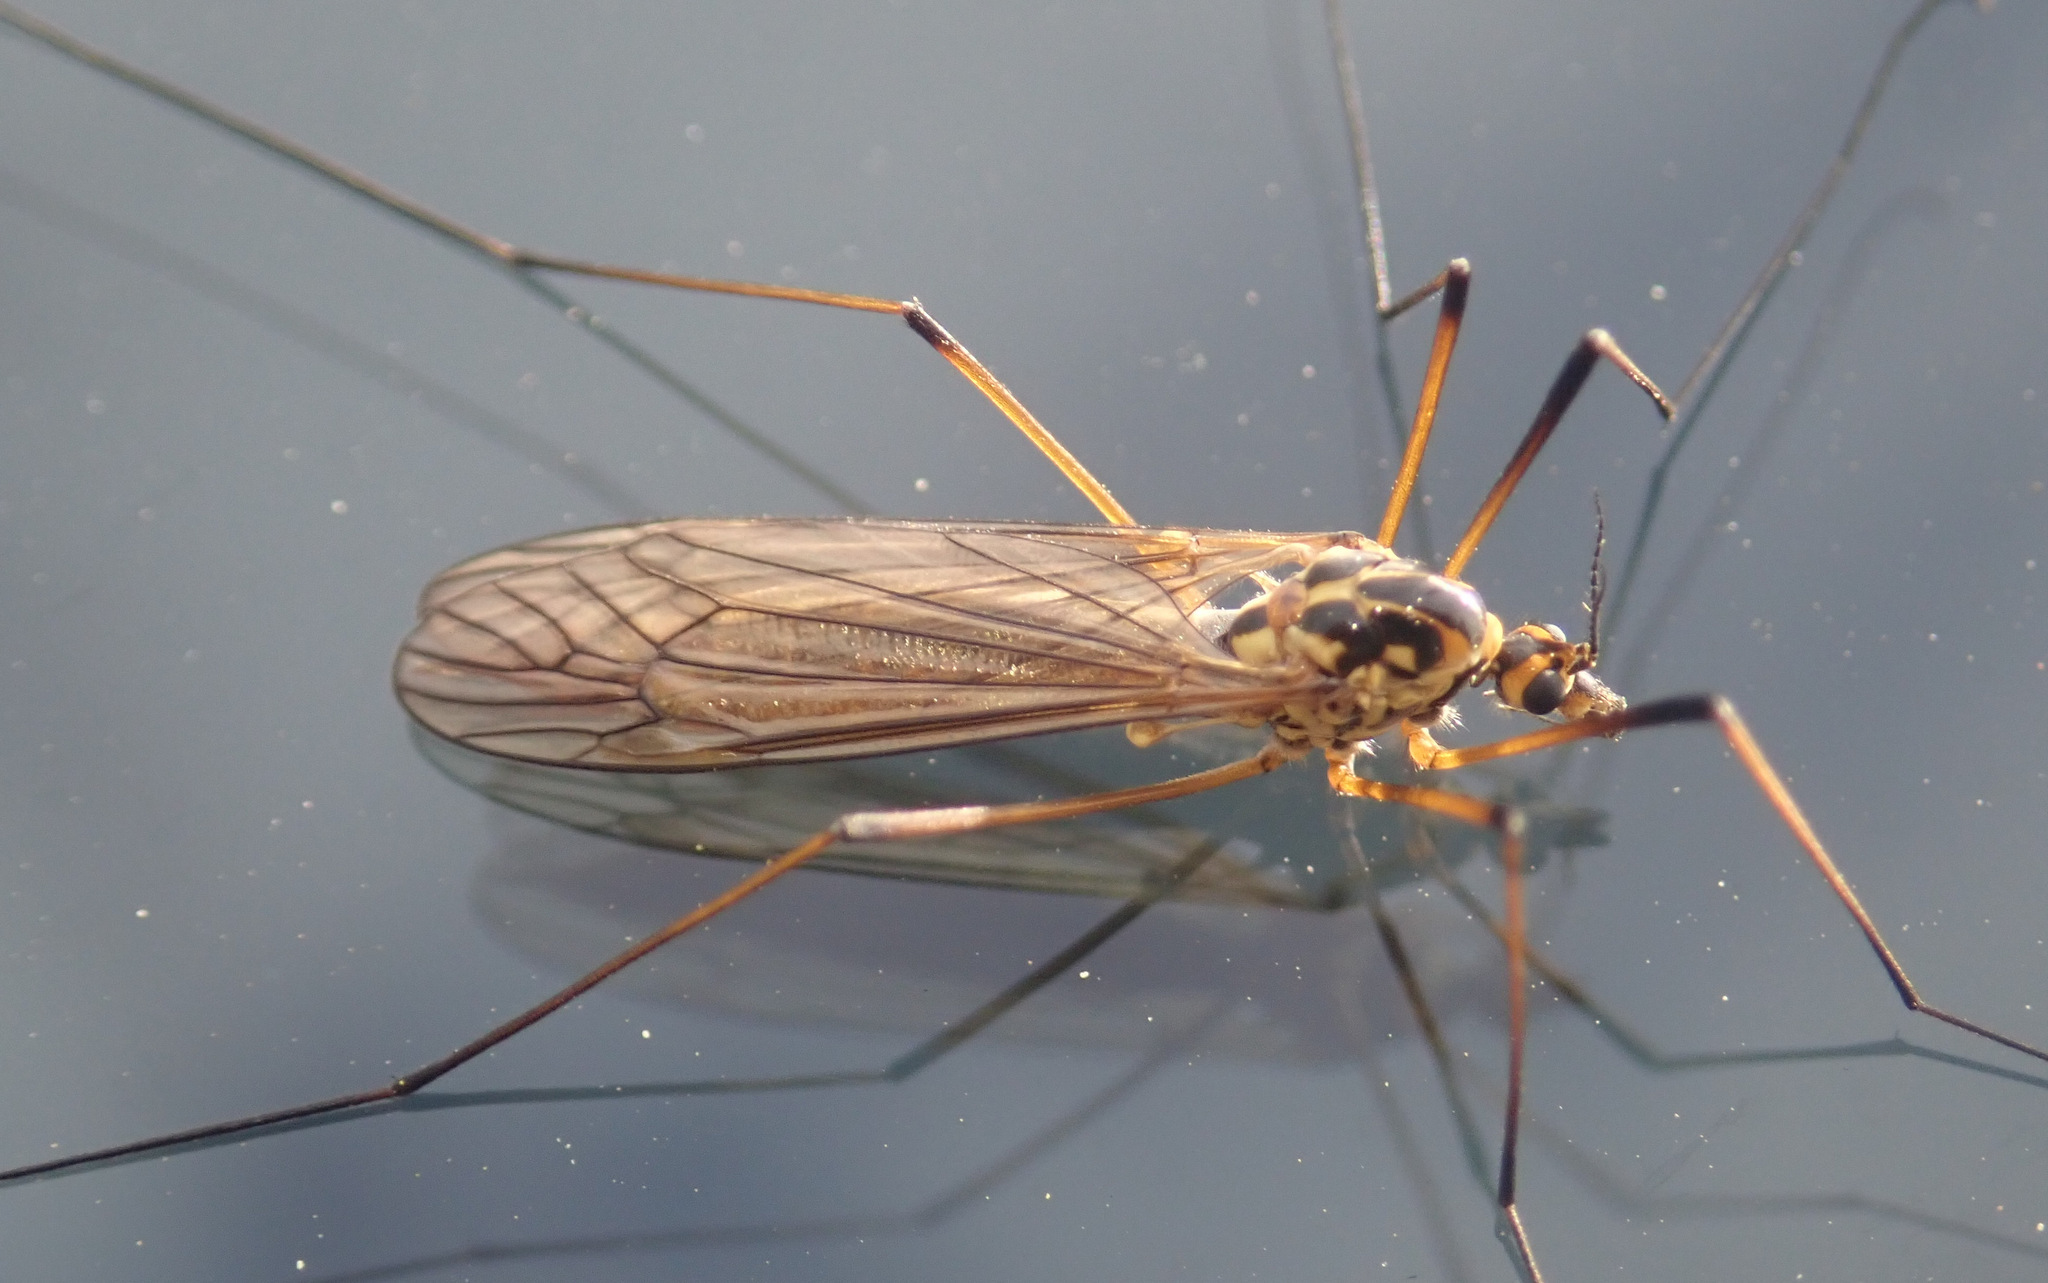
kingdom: Animalia
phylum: Arthropoda
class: Insecta
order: Diptera
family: Tipulidae
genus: Nephrotoma
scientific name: Nephrotoma appendiculata
